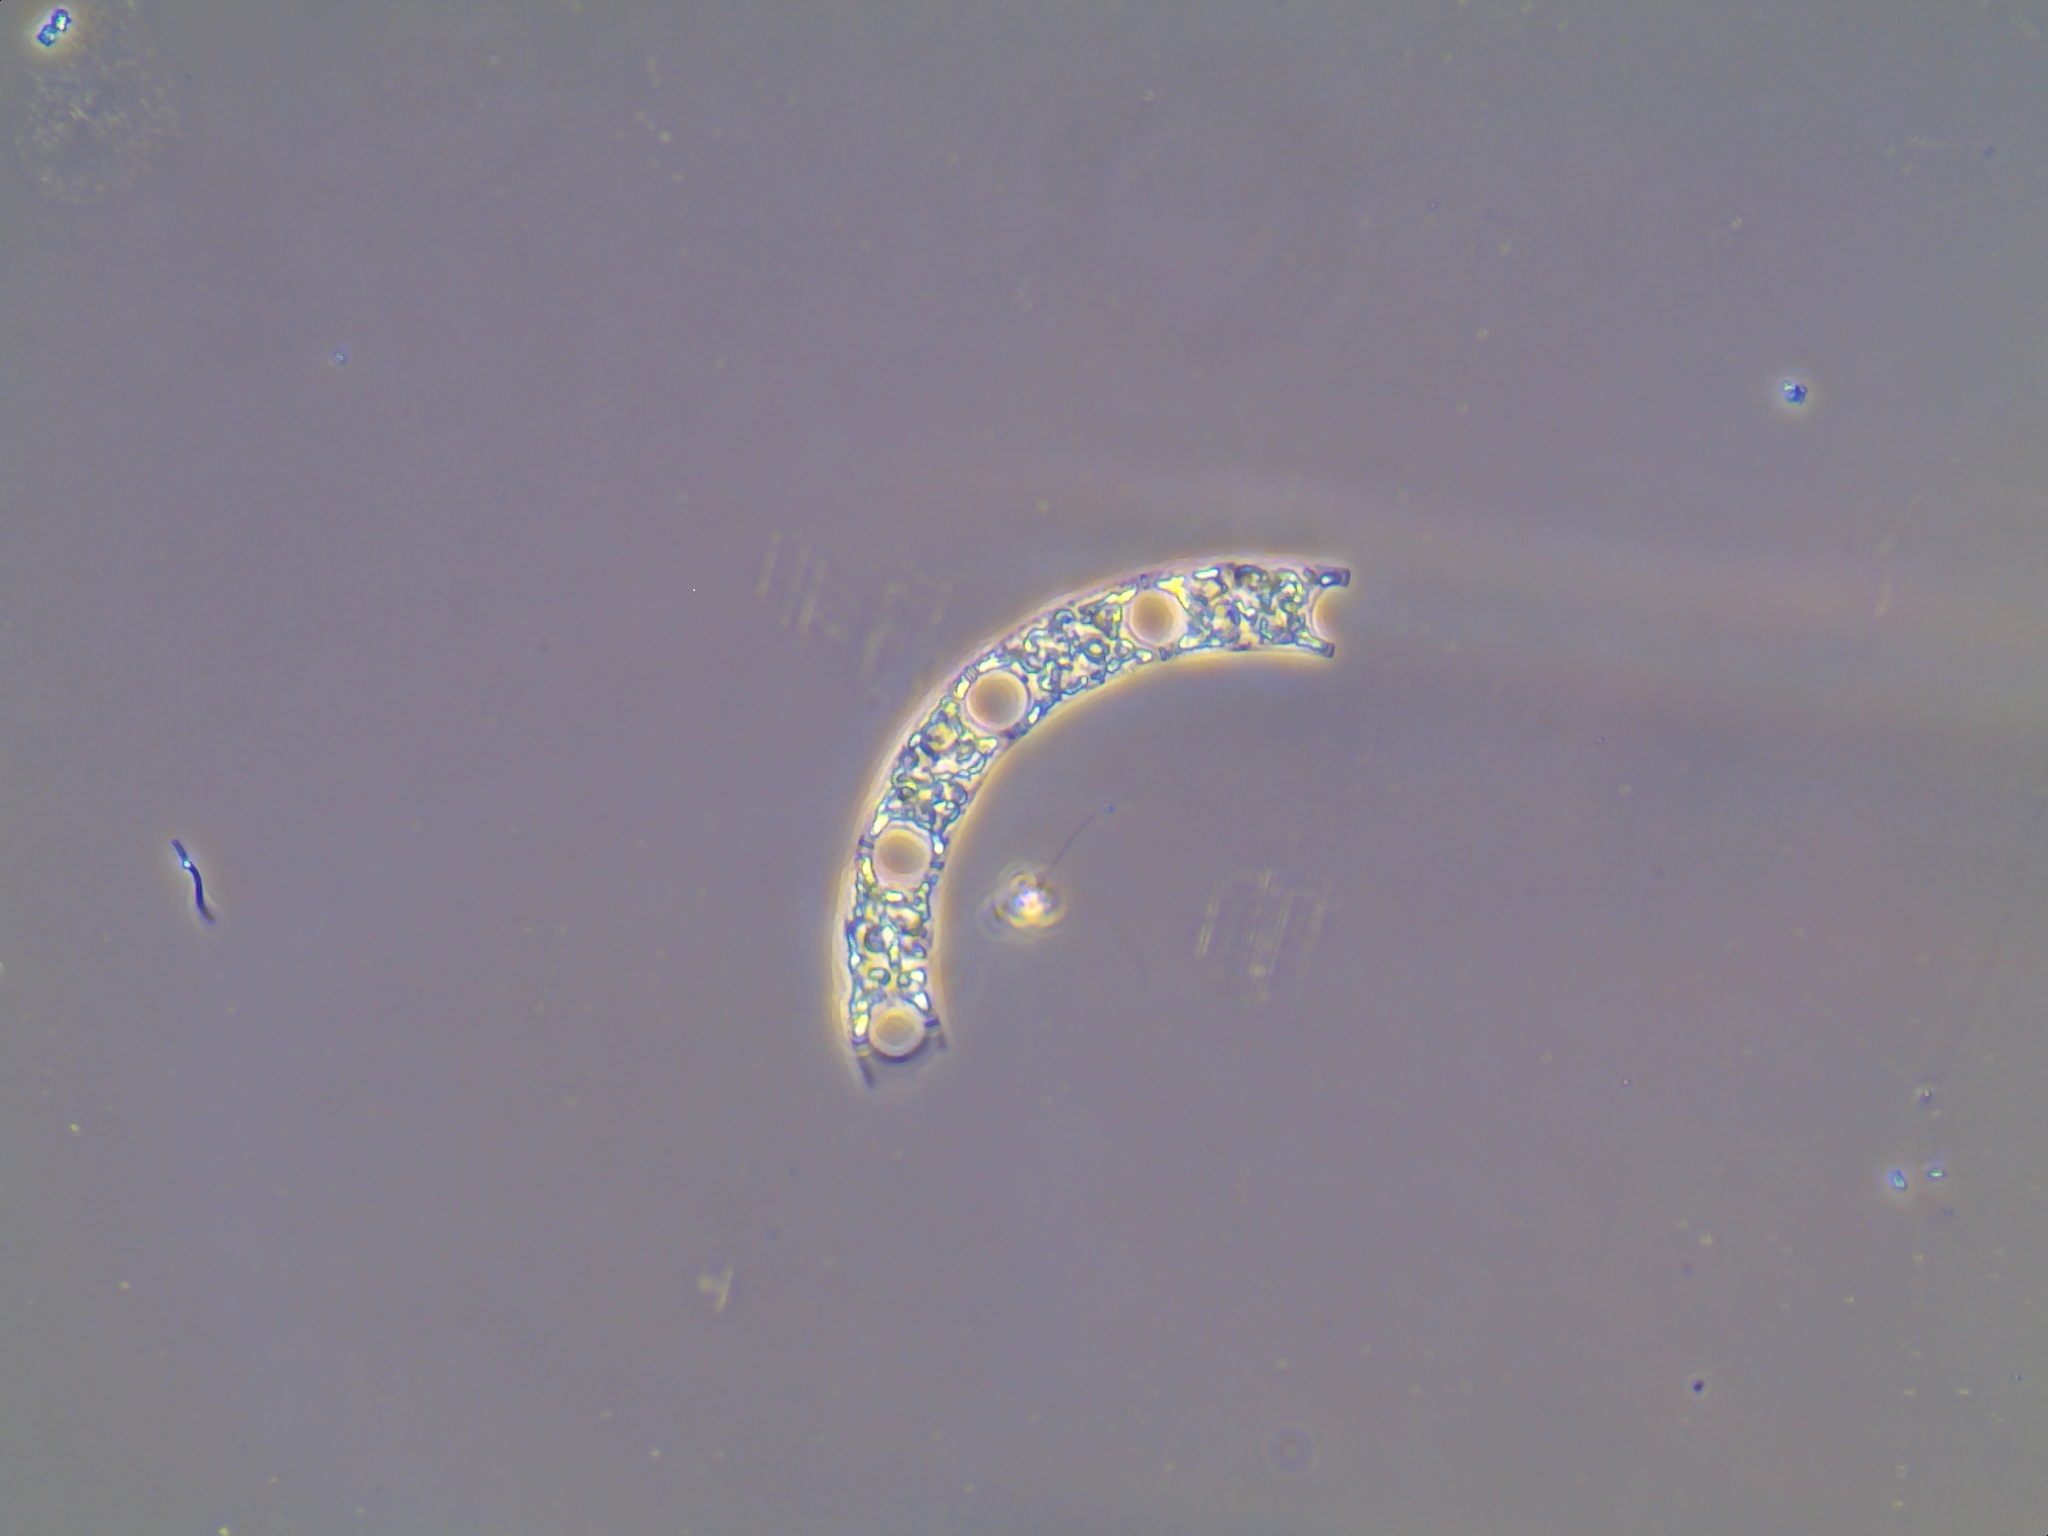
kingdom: Chromista
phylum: Ochrophyta
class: Bacillariophyceae
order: Hemiaulales
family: Hemiaulaceae
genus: Eucampia
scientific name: Eucampia zodiacus
